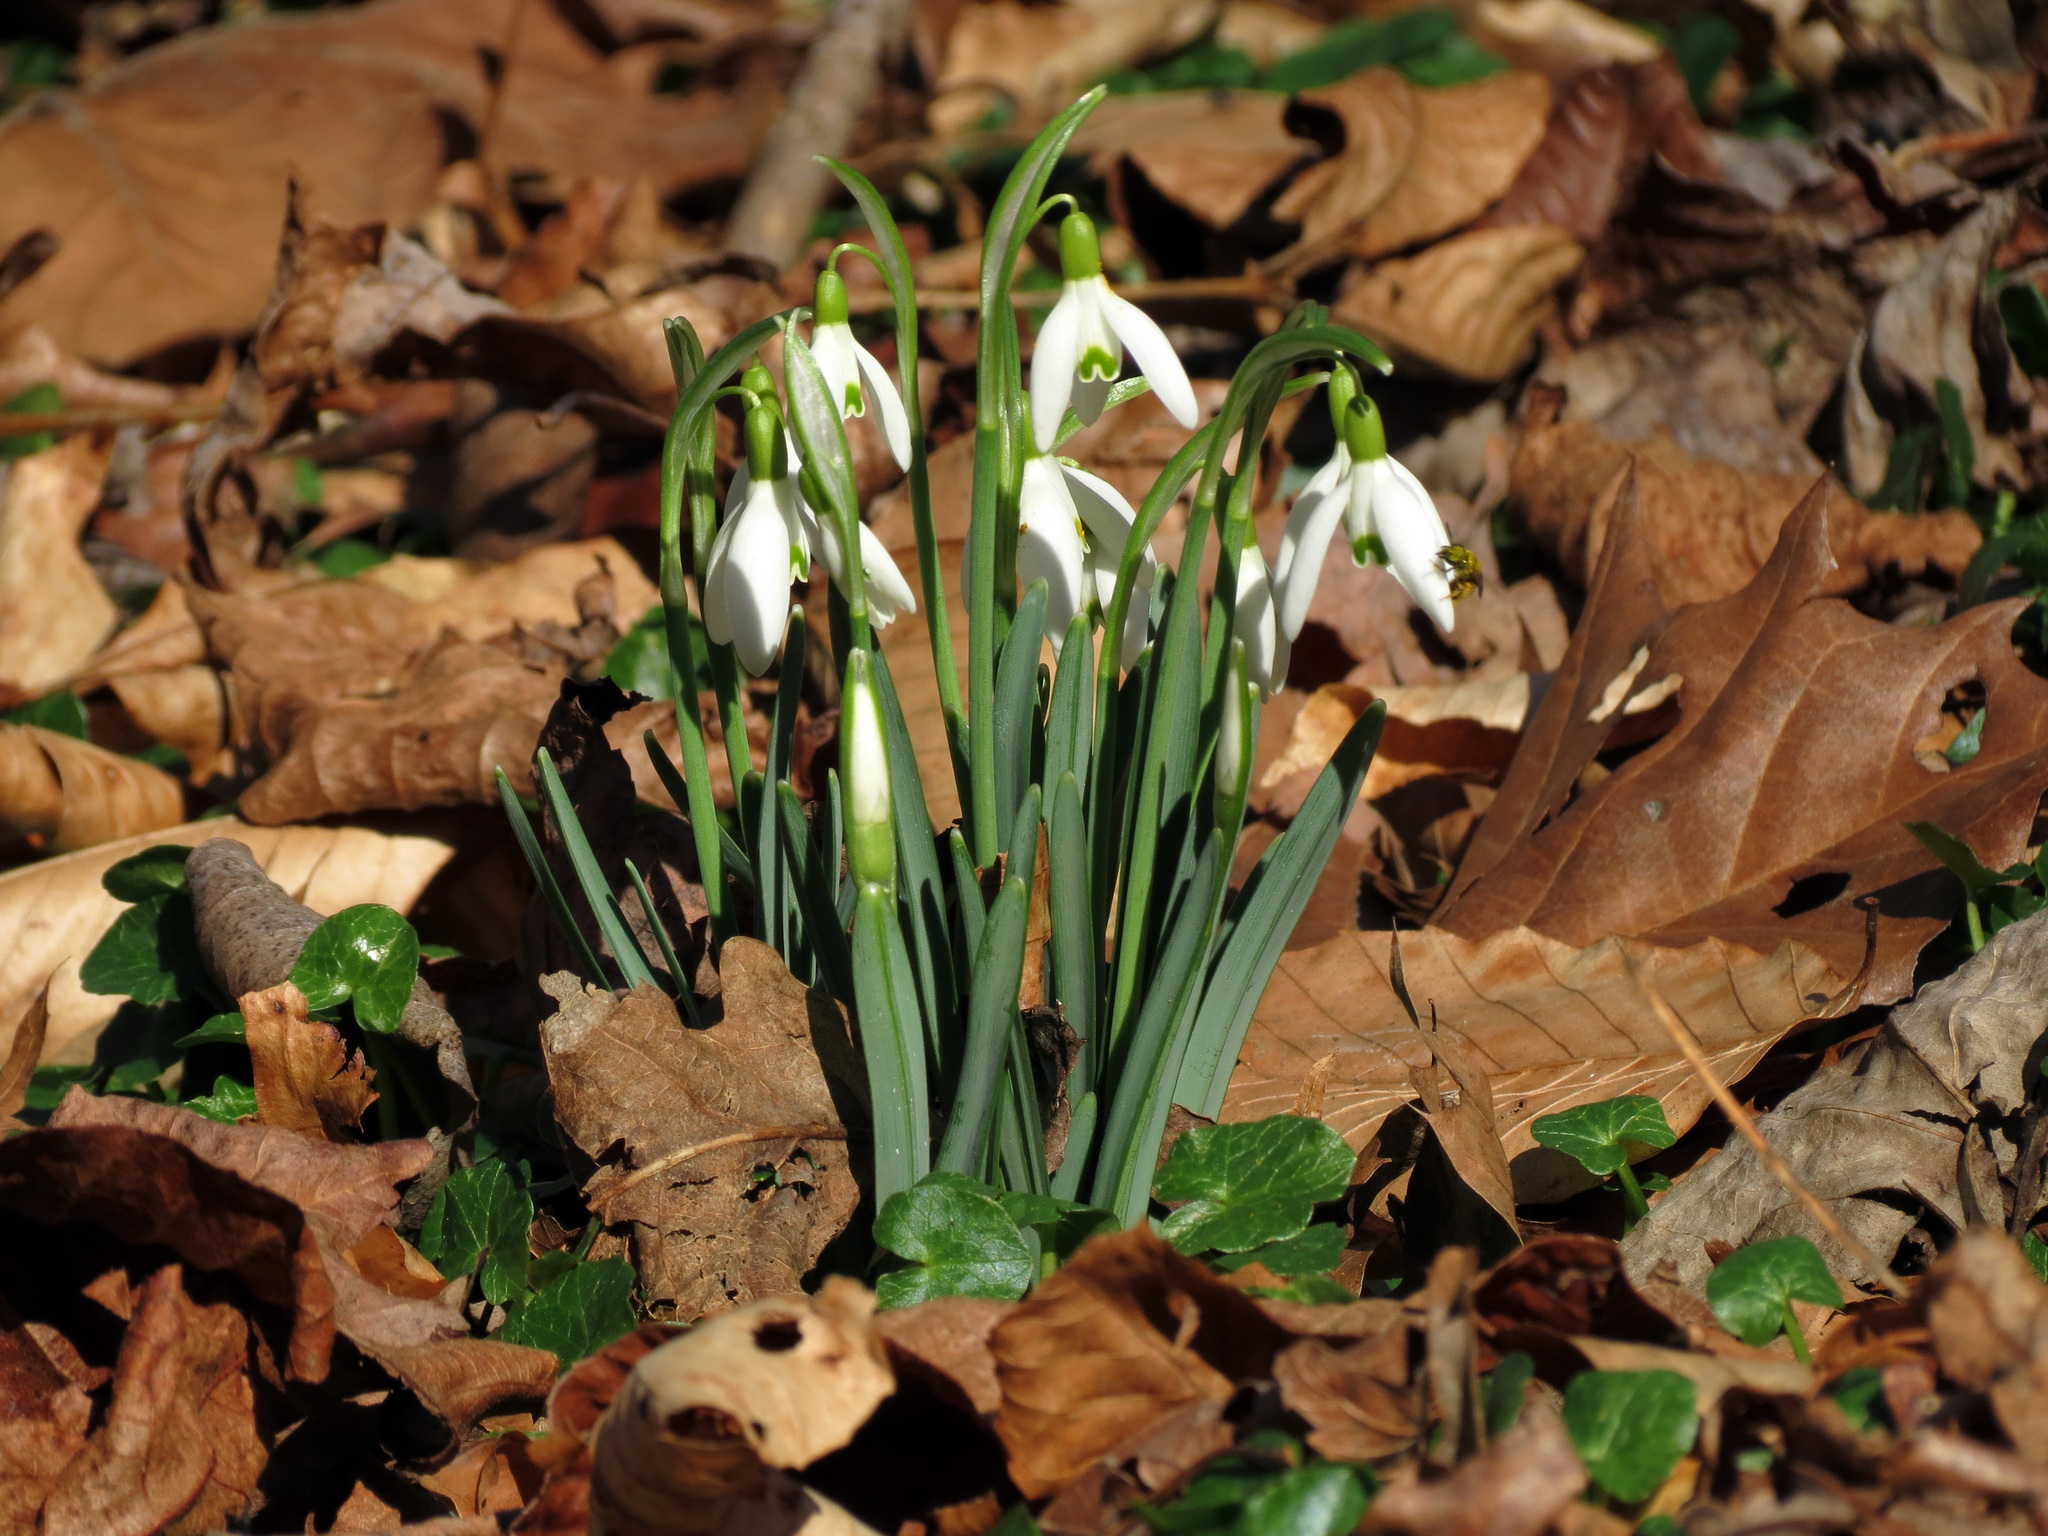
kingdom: Plantae
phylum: Tracheophyta
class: Liliopsida
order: Asparagales
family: Amaryllidaceae
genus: Galanthus
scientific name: Galanthus nivalis
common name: Snowdrop
